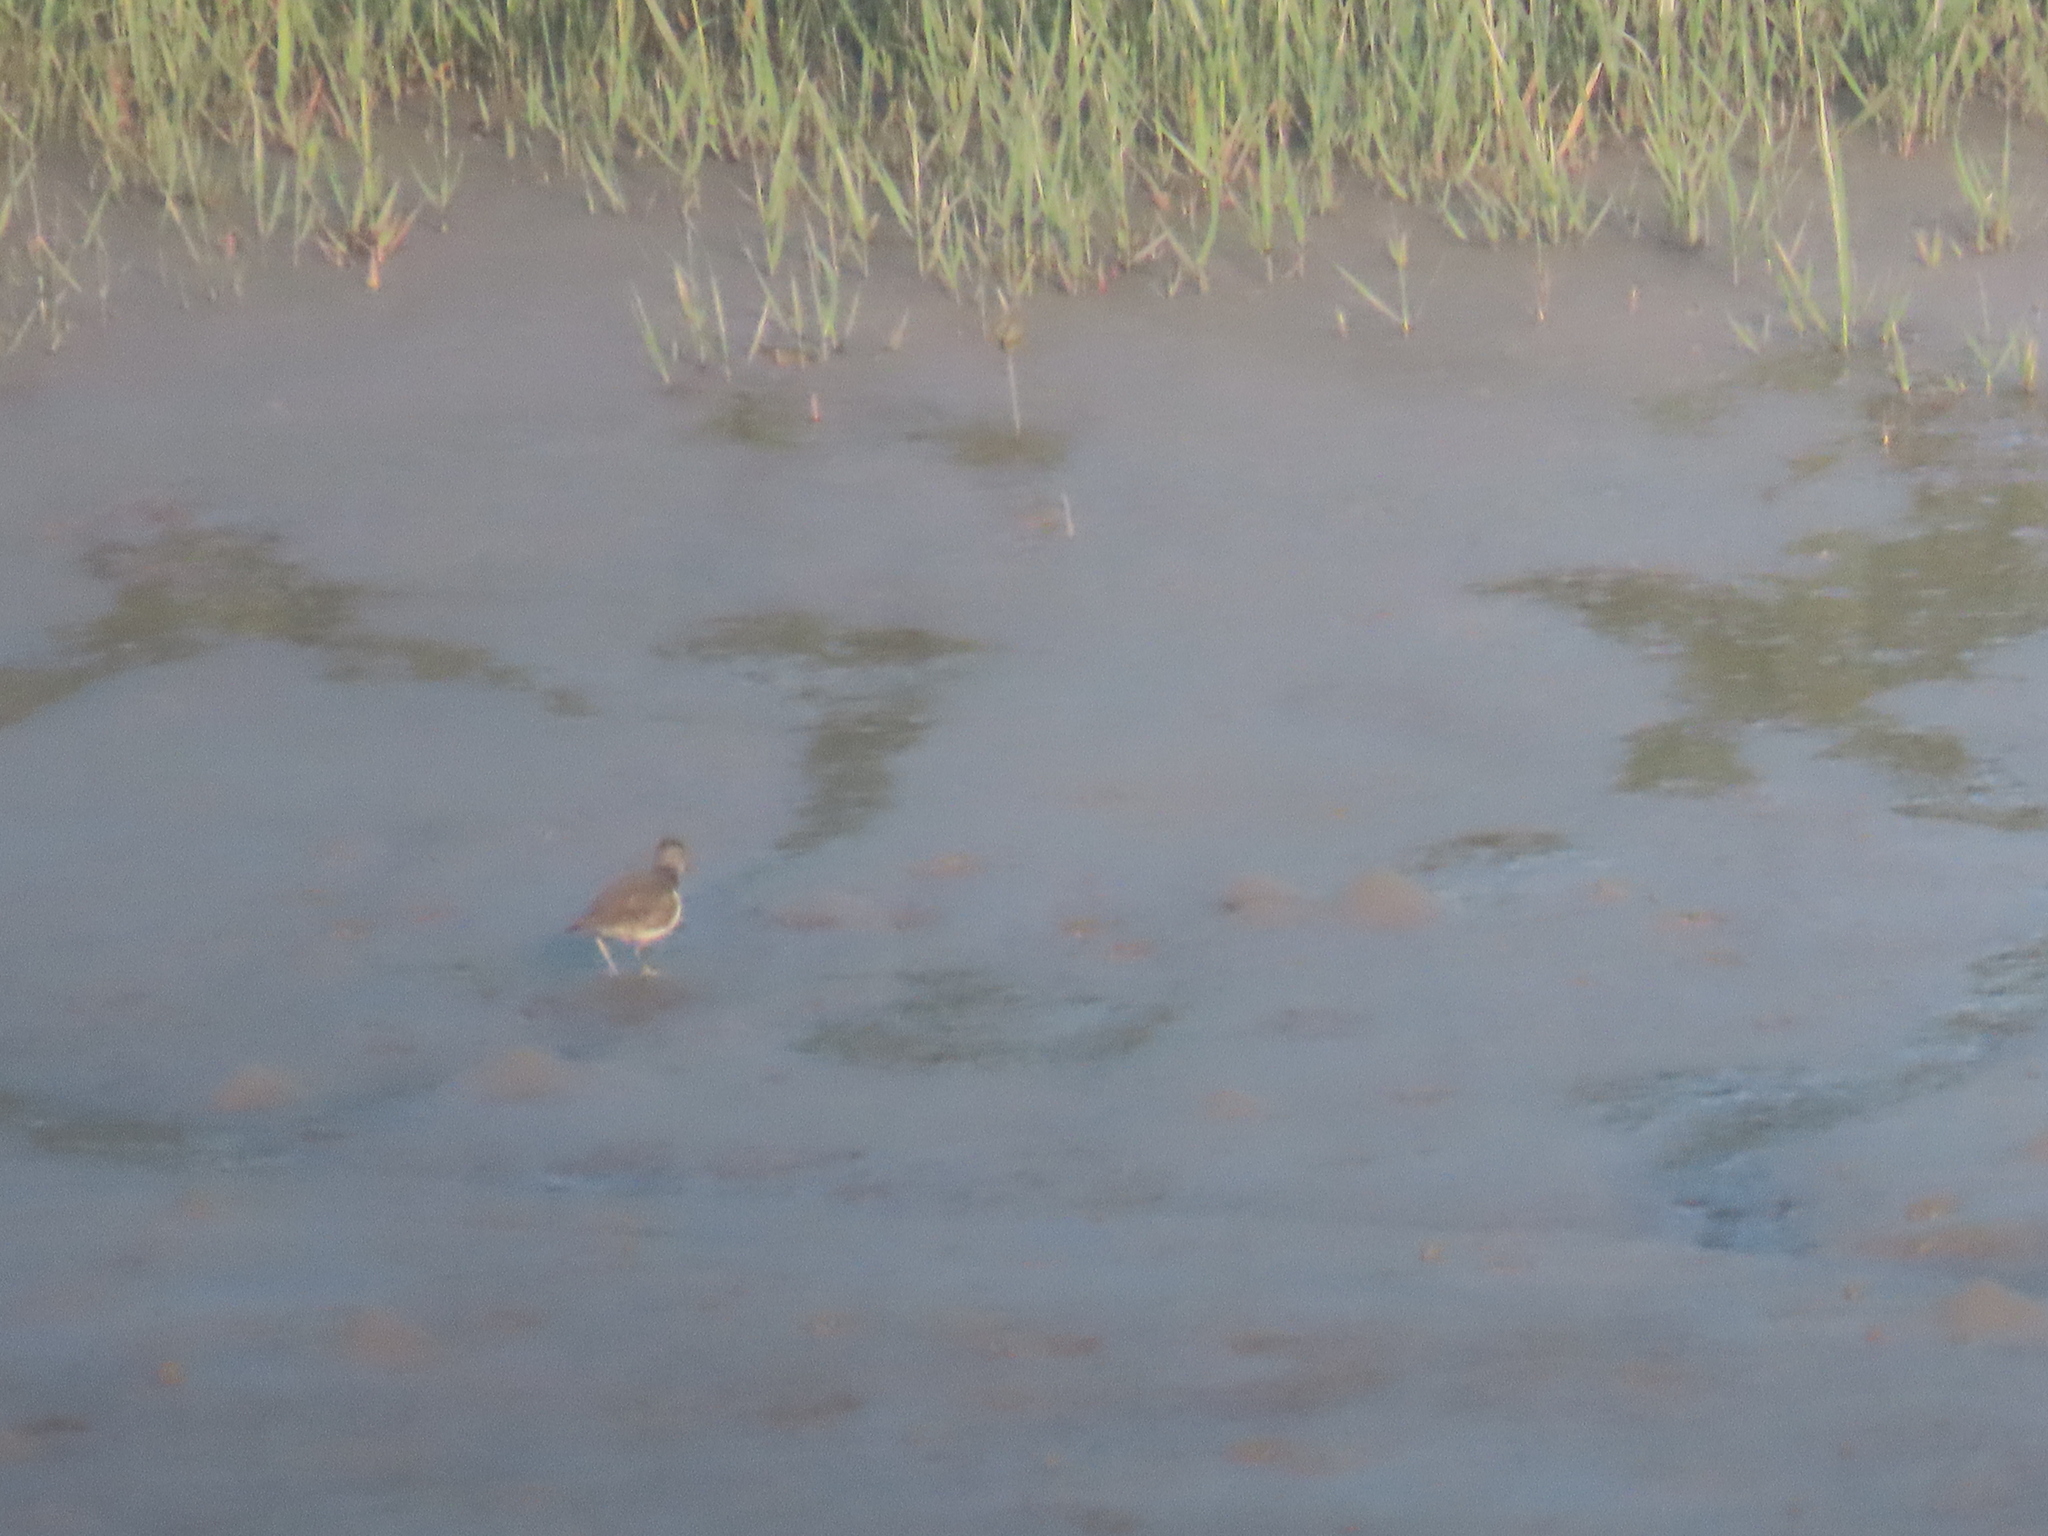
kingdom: Animalia
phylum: Chordata
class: Aves
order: Charadriiformes
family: Scolopacidae
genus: Actitis
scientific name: Actitis hypoleucos
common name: Common sandpiper
